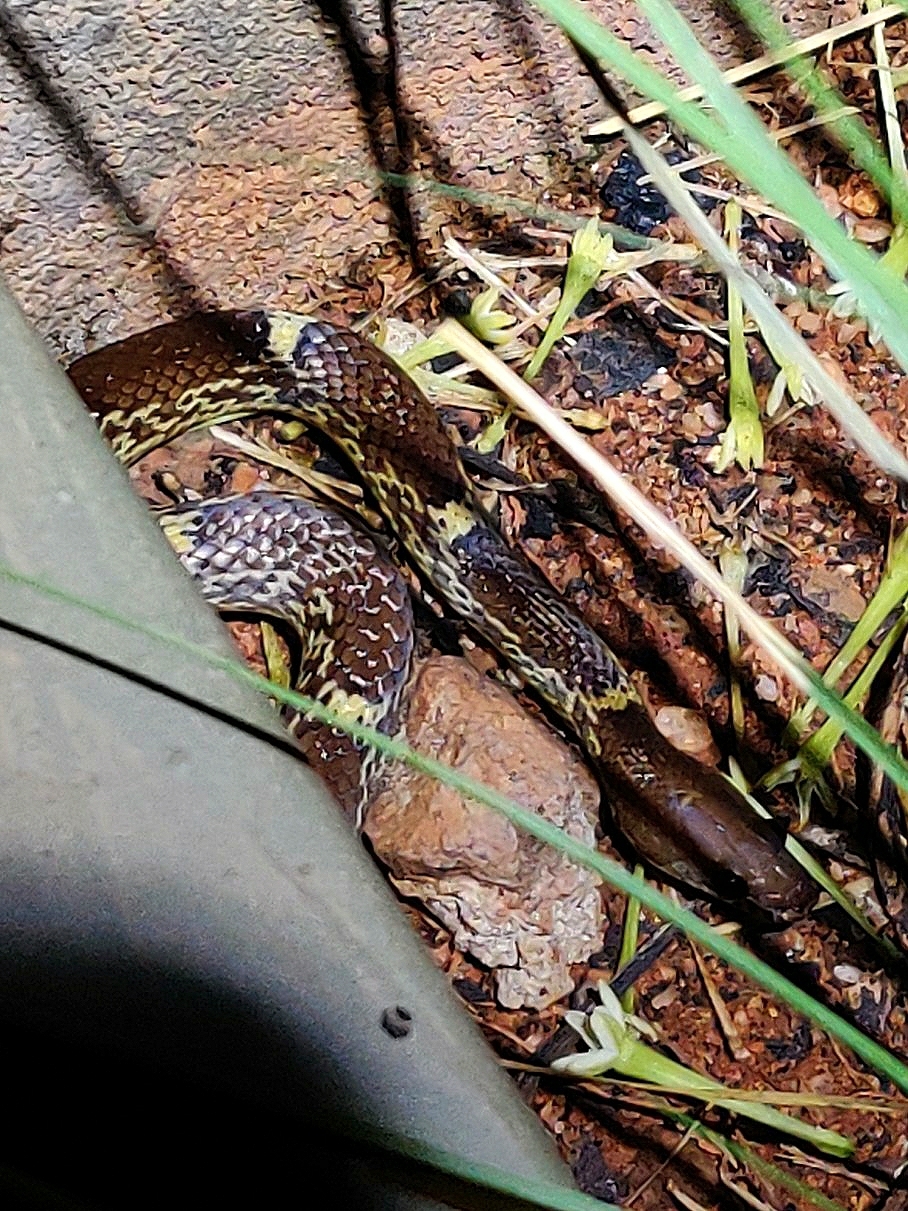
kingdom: Animalia
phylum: Chordata
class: Squamata
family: Colubridae
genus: Lycodon
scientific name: Lycodon fasciolatus
